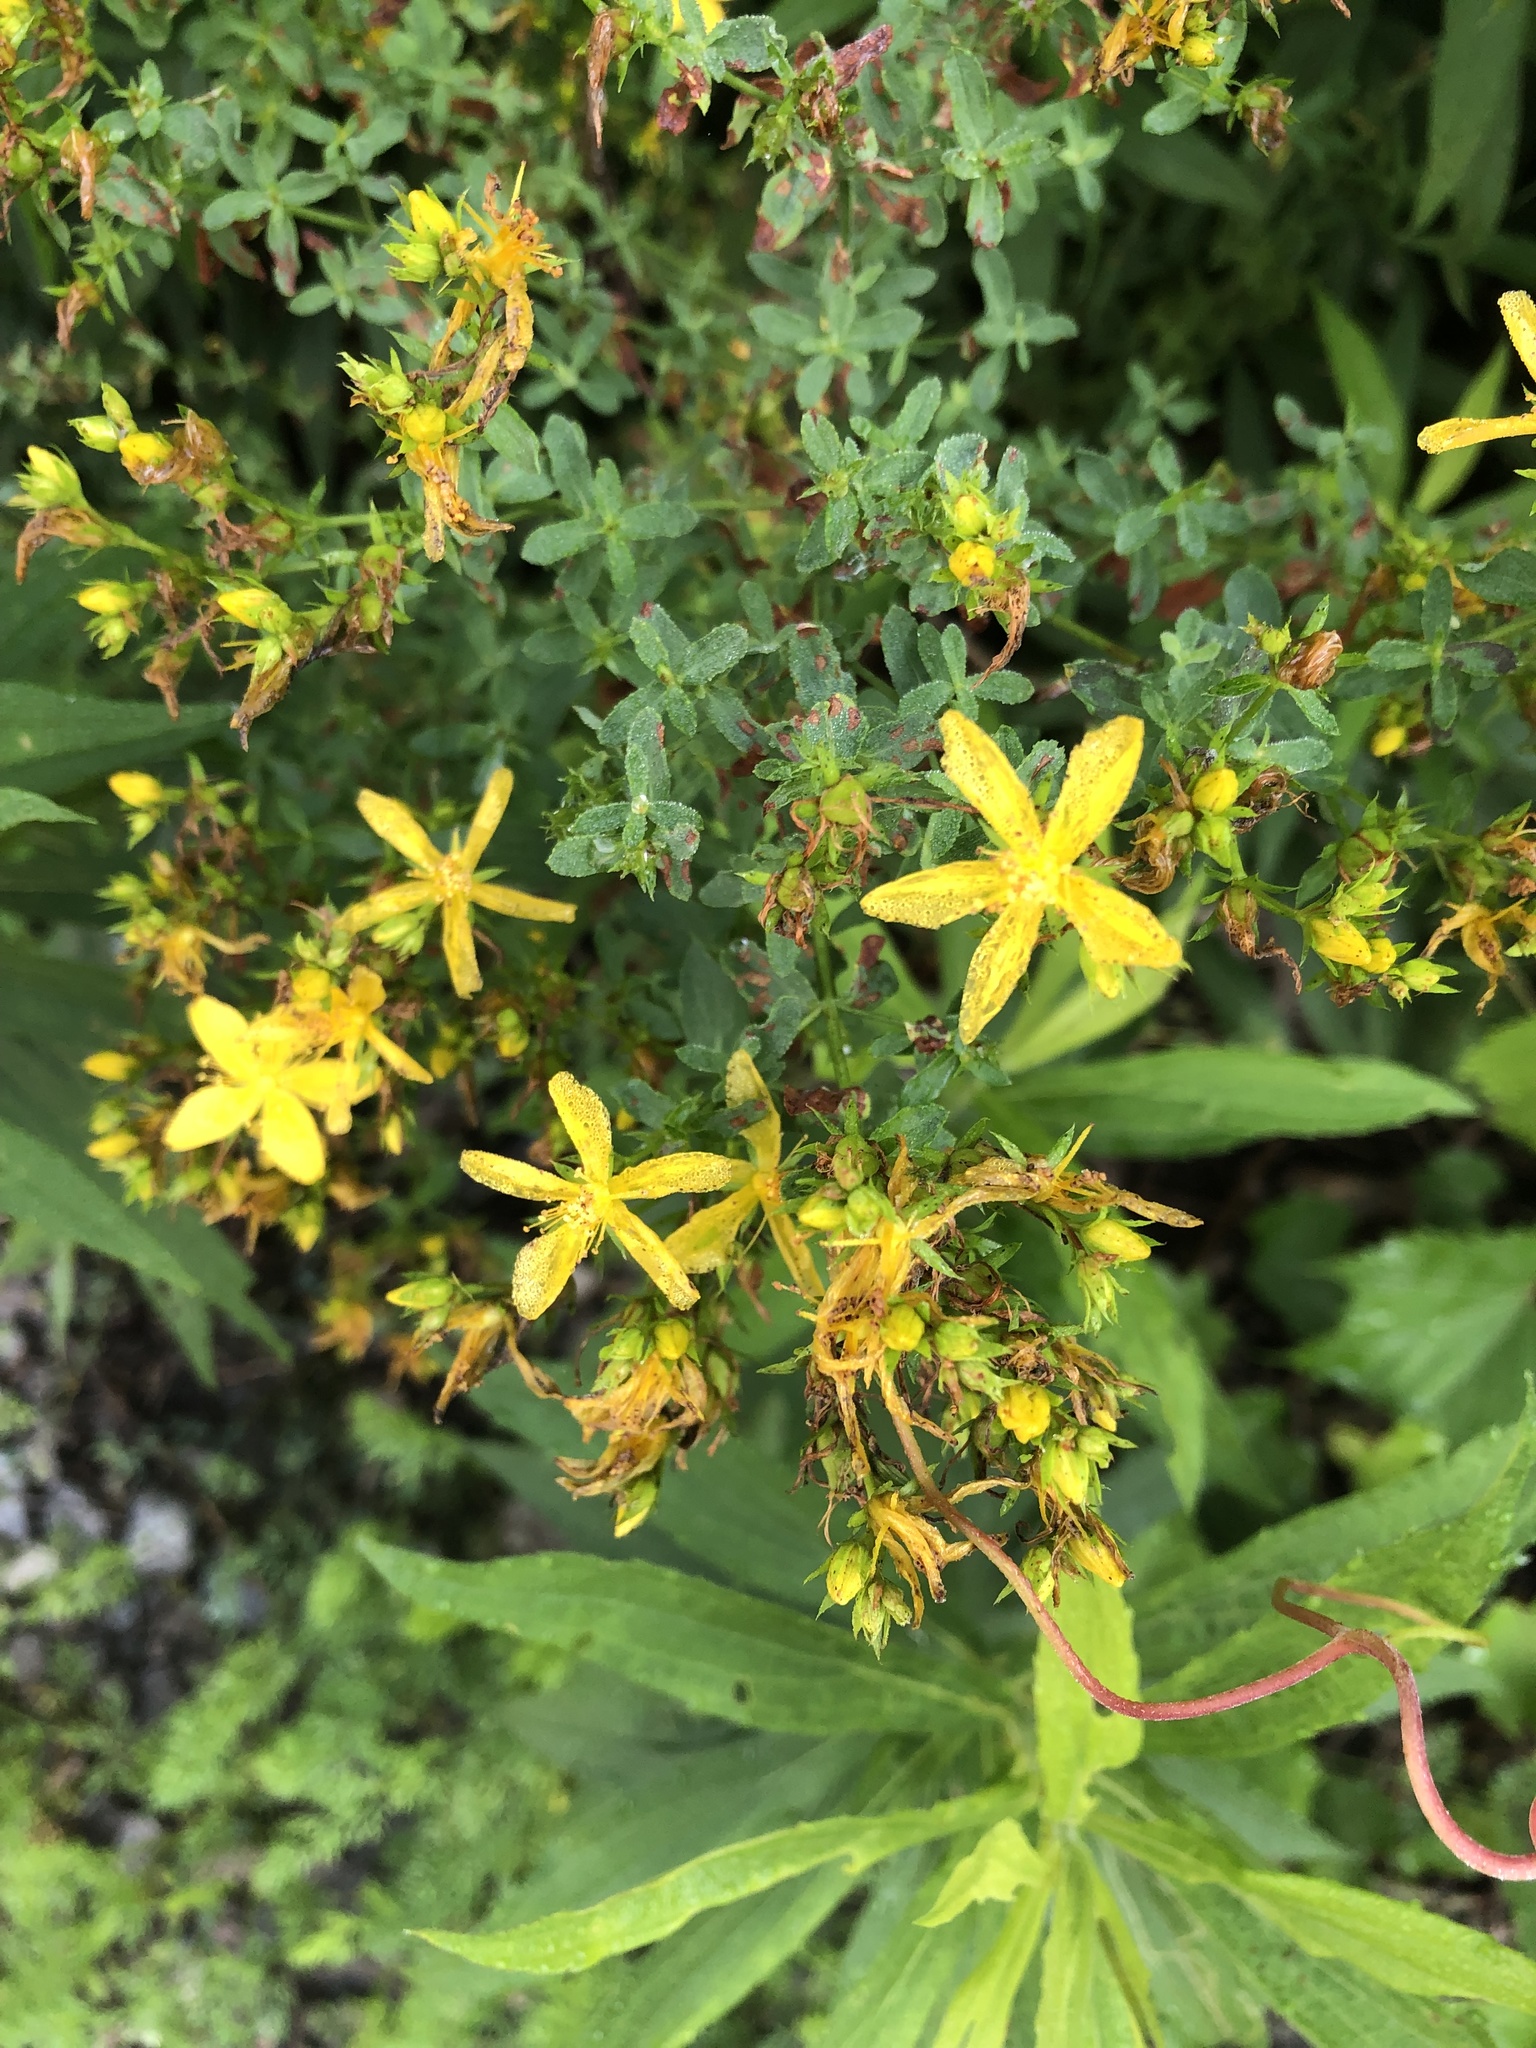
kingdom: Plantae
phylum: Tracheophyta
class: Magnoliopsida
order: Malpighiales
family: Hypericaceae
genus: Hypericum
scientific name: Hypericum perforatum
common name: Common st. johnswort
